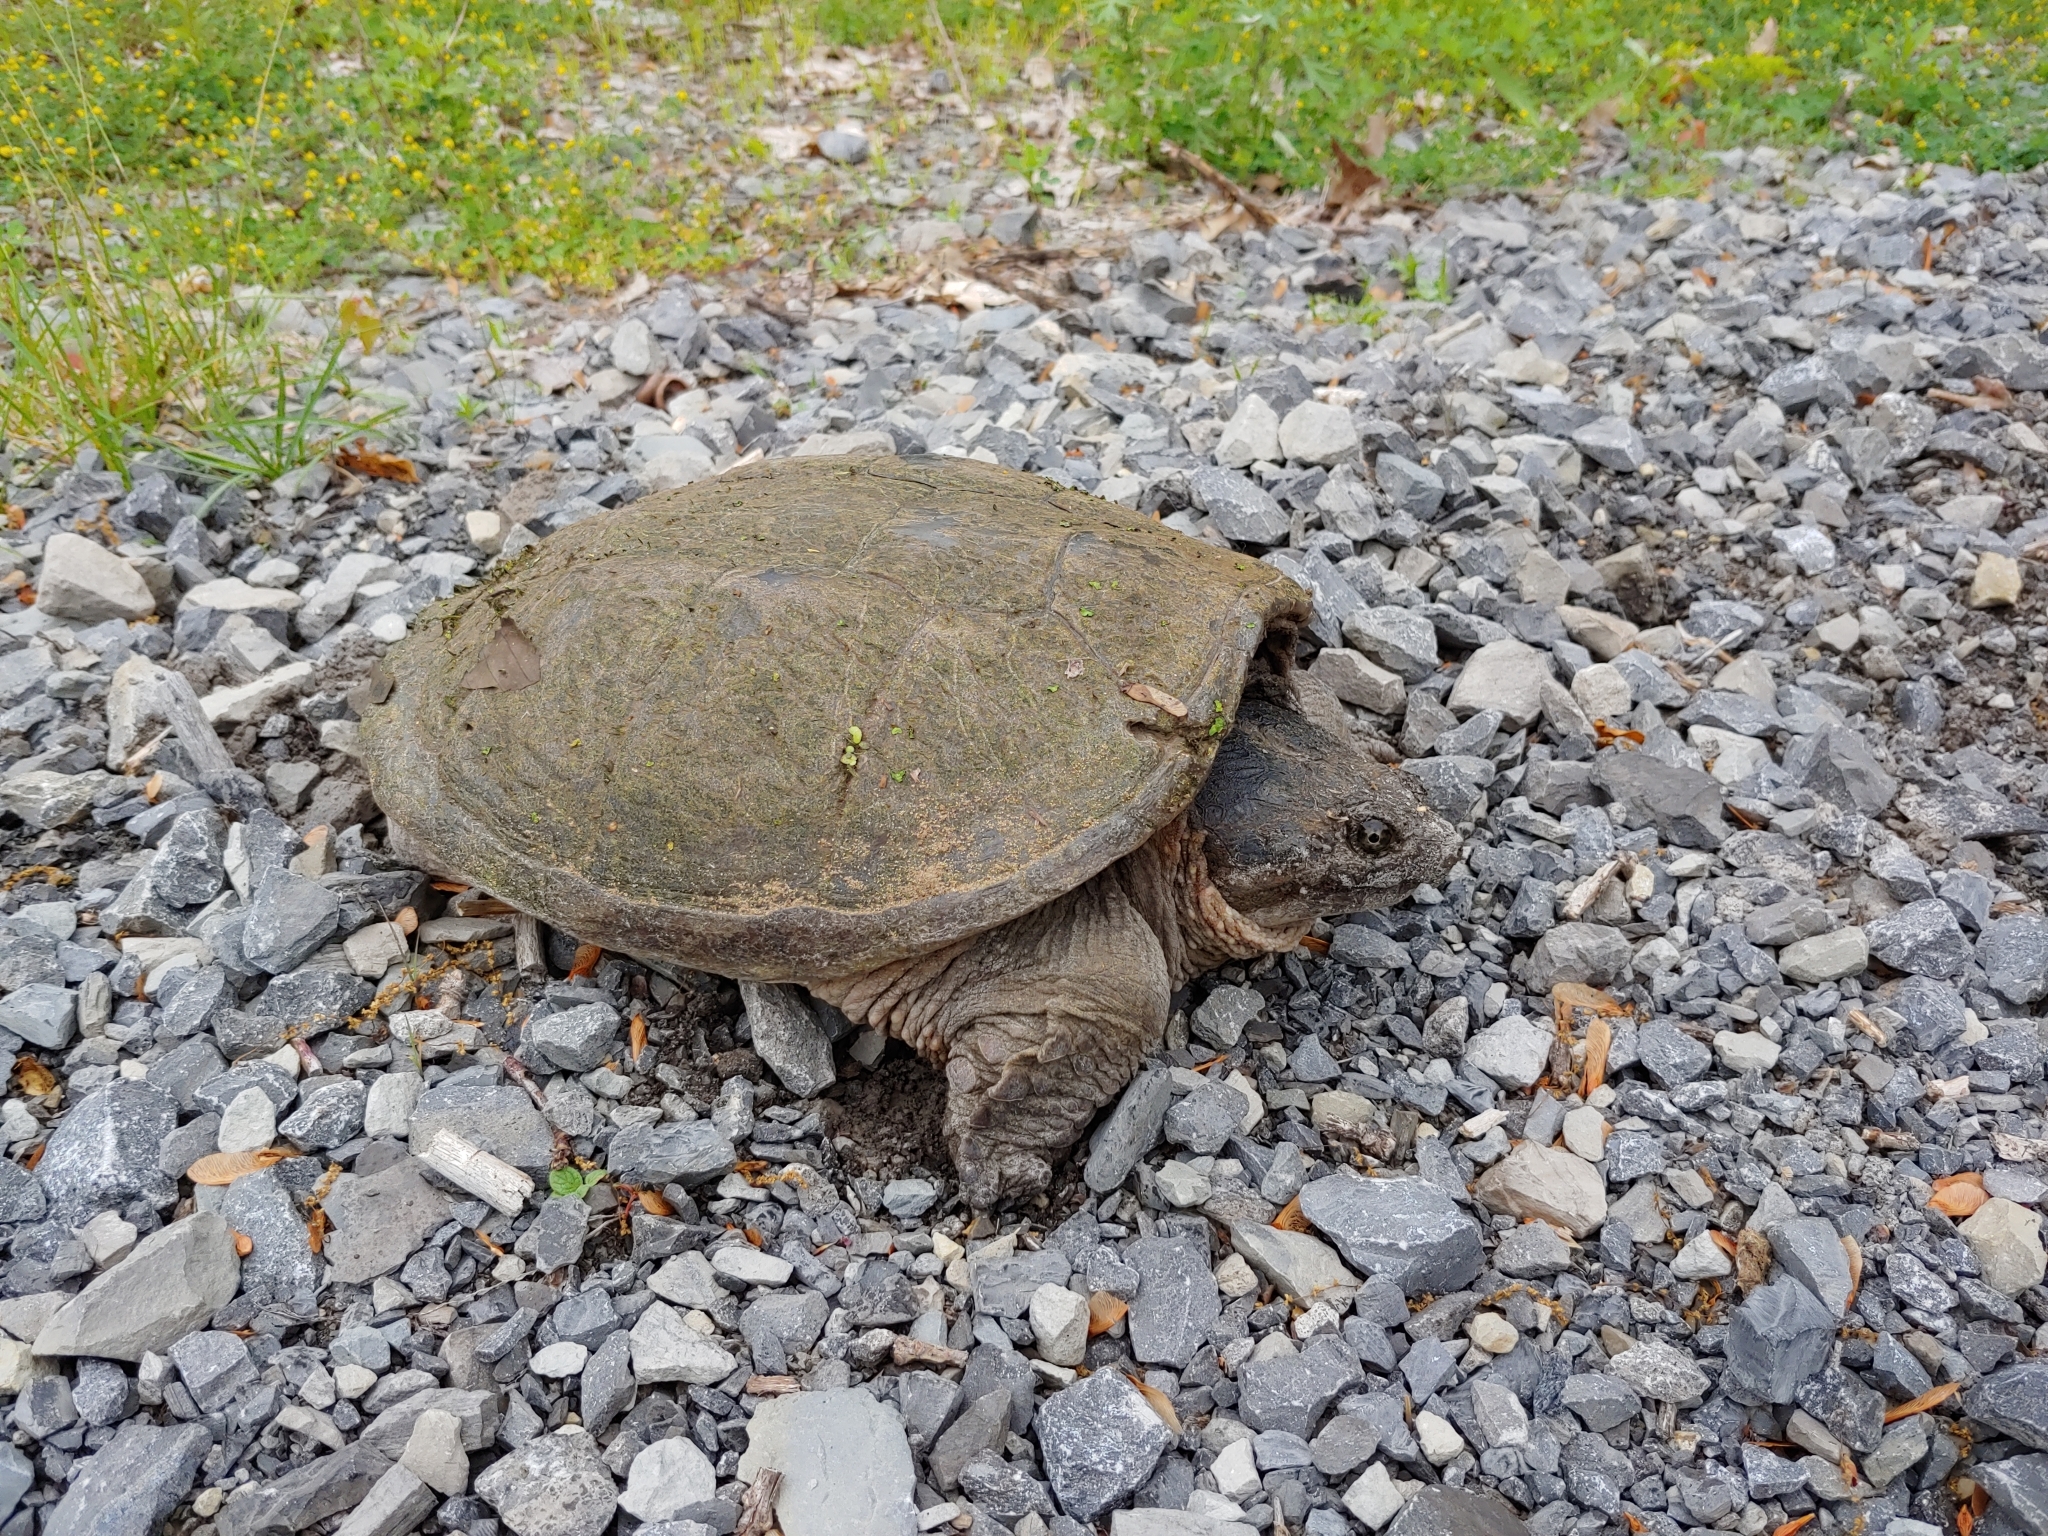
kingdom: Animalia
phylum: Chordata
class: Testudines
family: Chelydridae
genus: Chelydra
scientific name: Chelydra serpentina
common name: Common snapping turtle
